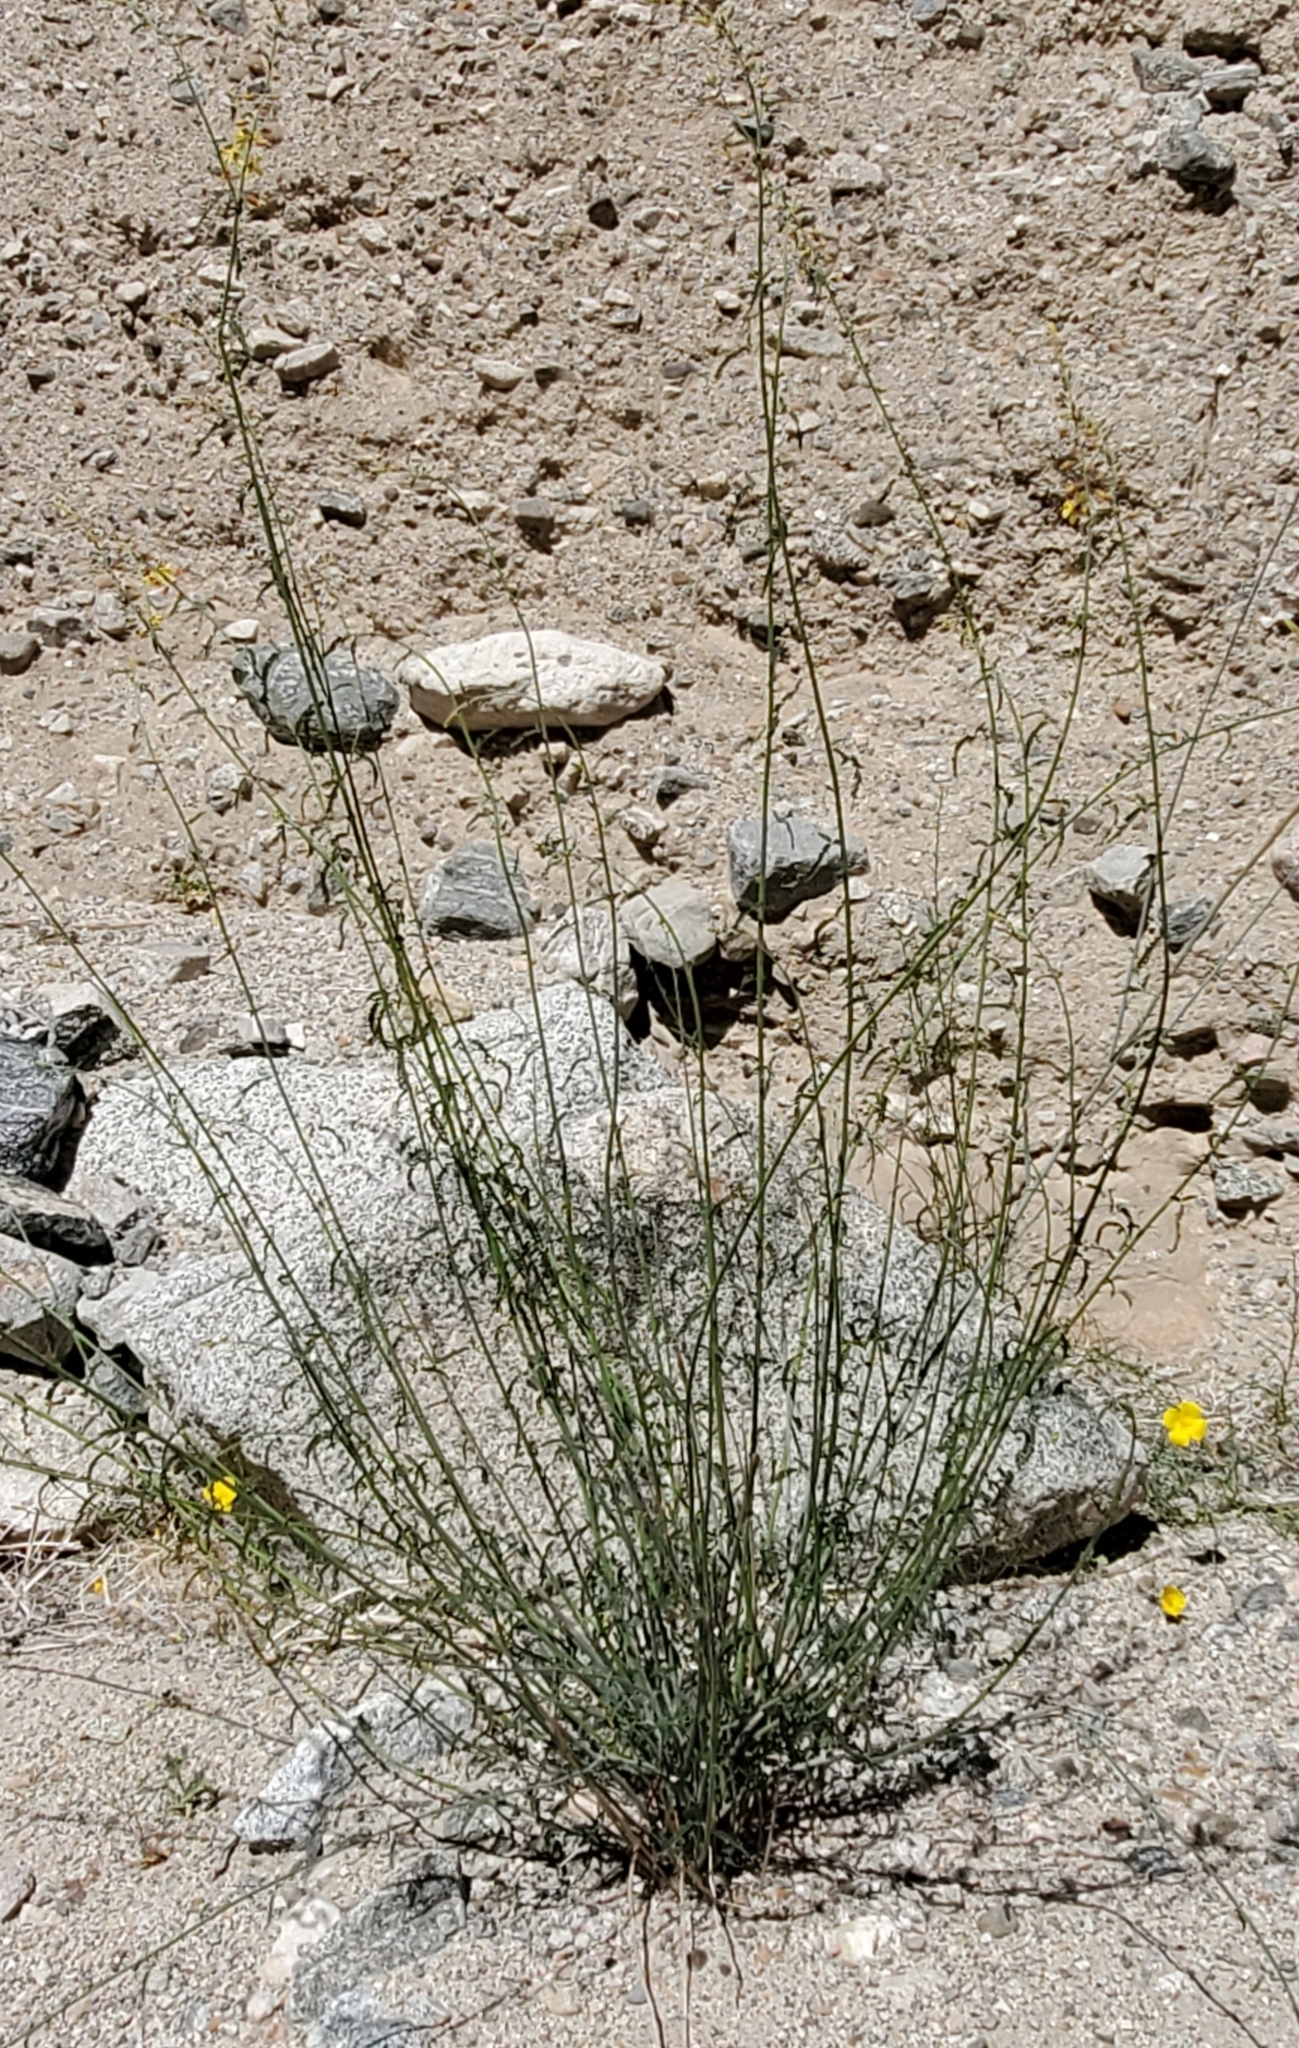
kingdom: Plantae
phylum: Tracheophyta
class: Magnoliopsida
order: Fabales
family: Fabaceae
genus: Hoffmannseggia
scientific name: Hoffmannseggia microphylla
